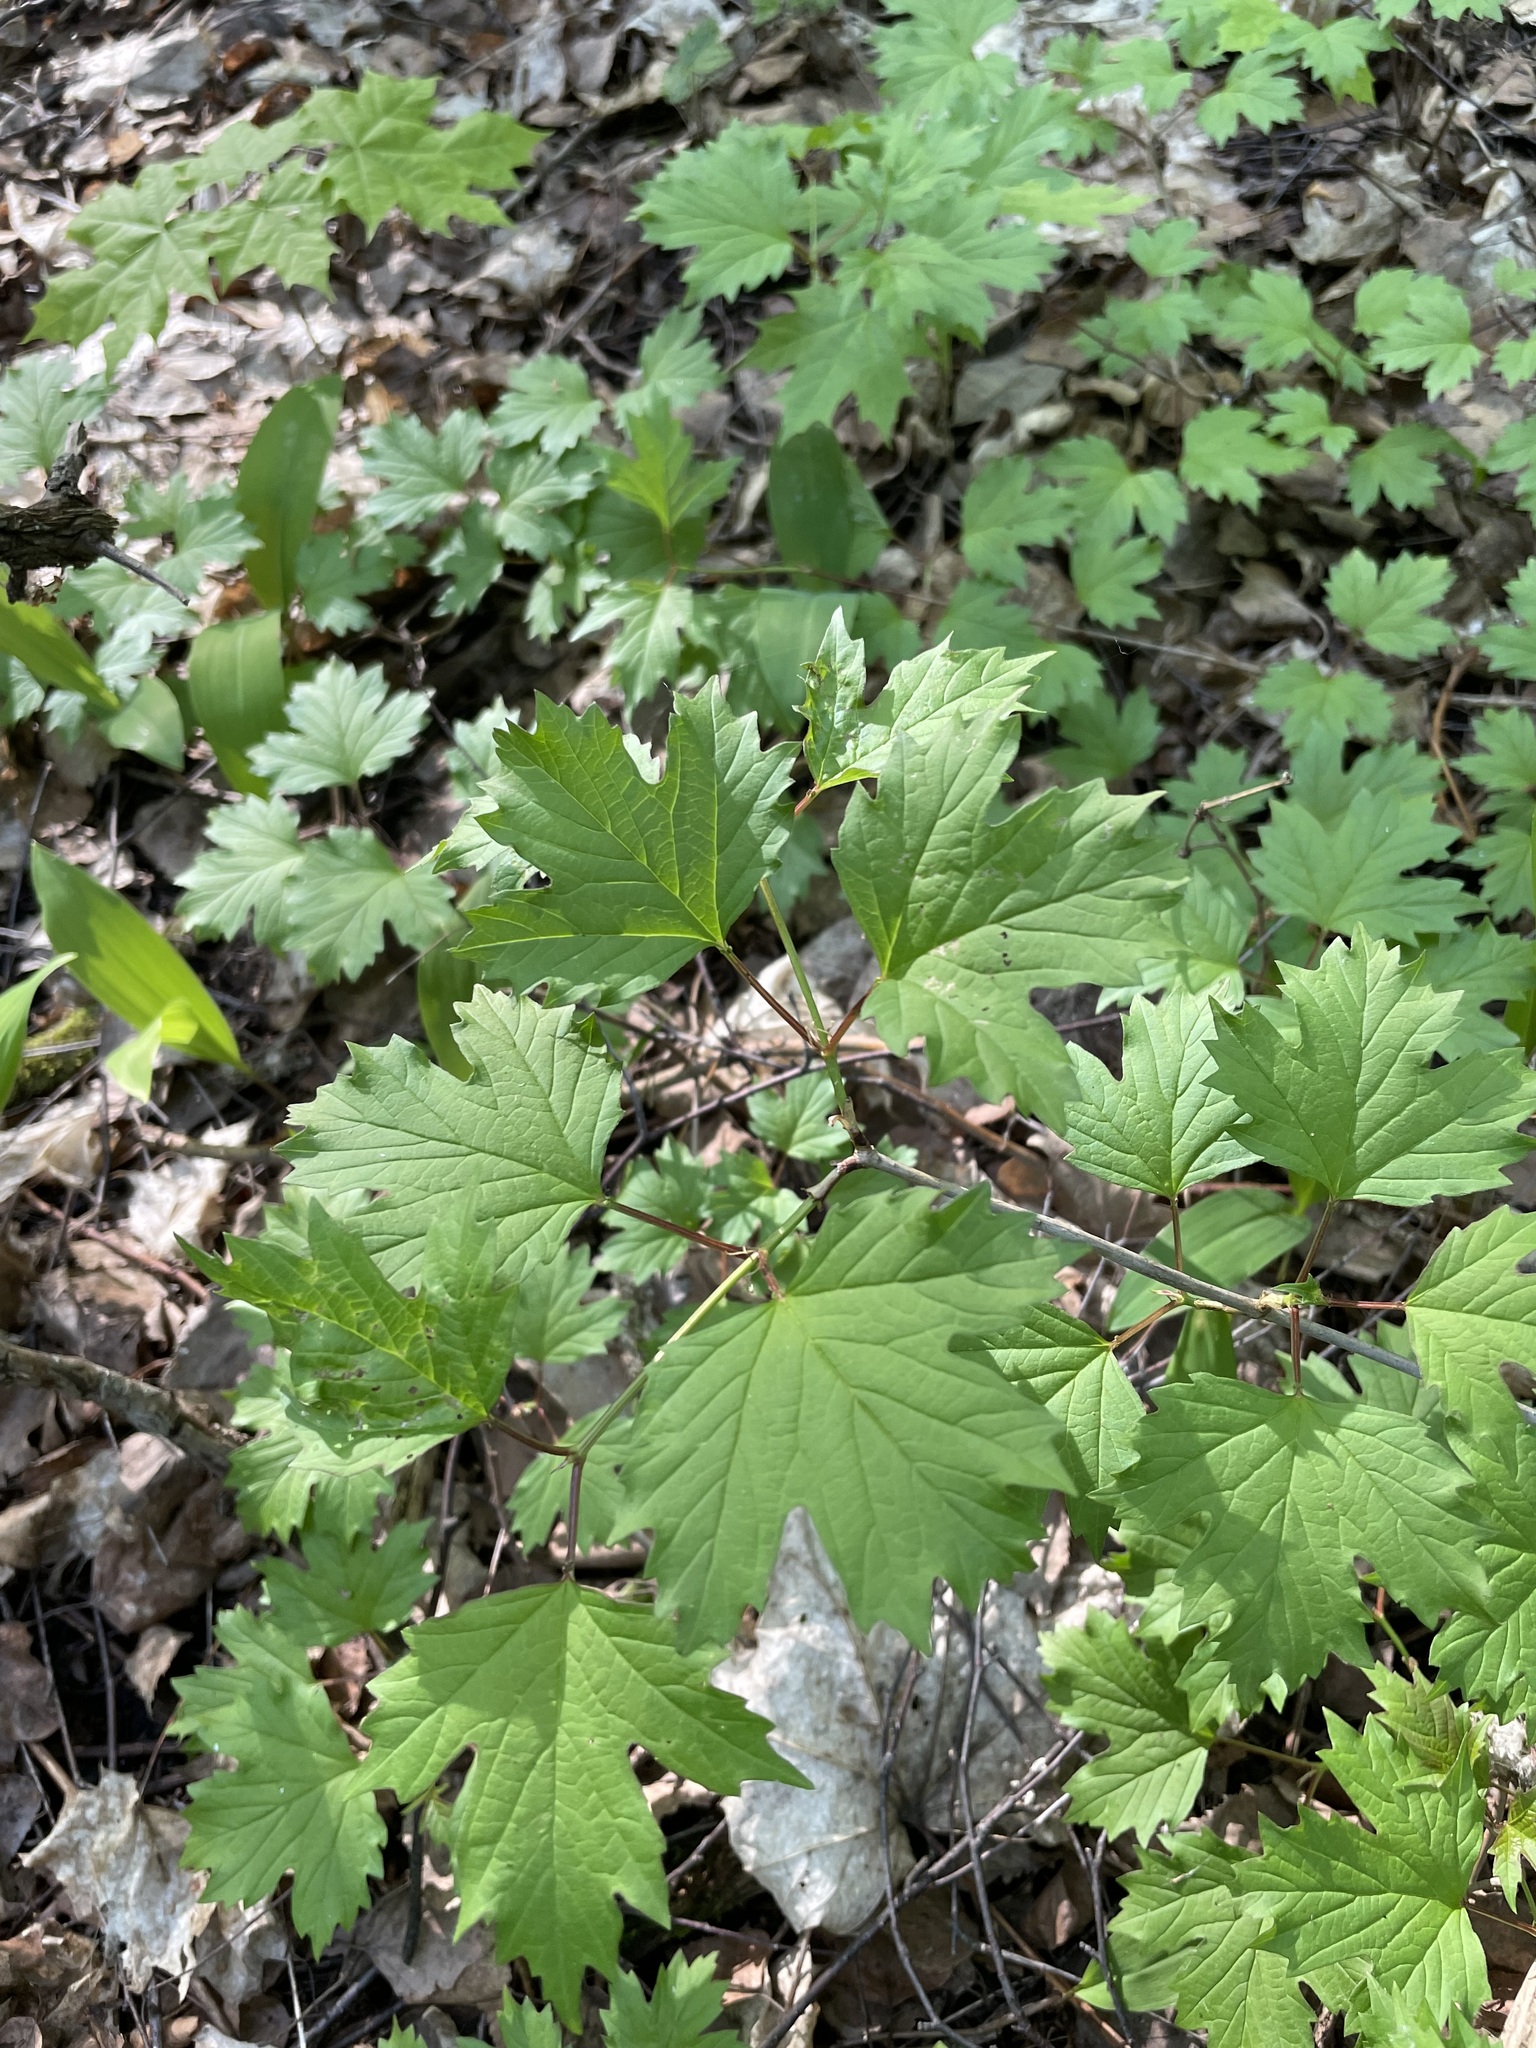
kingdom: Plantae
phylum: Tracheophyta
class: Magnoliopsida
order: Dipsacales
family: Viburnaceae
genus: Viburnum
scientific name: Viburnum opulus
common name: Guelder-rose
